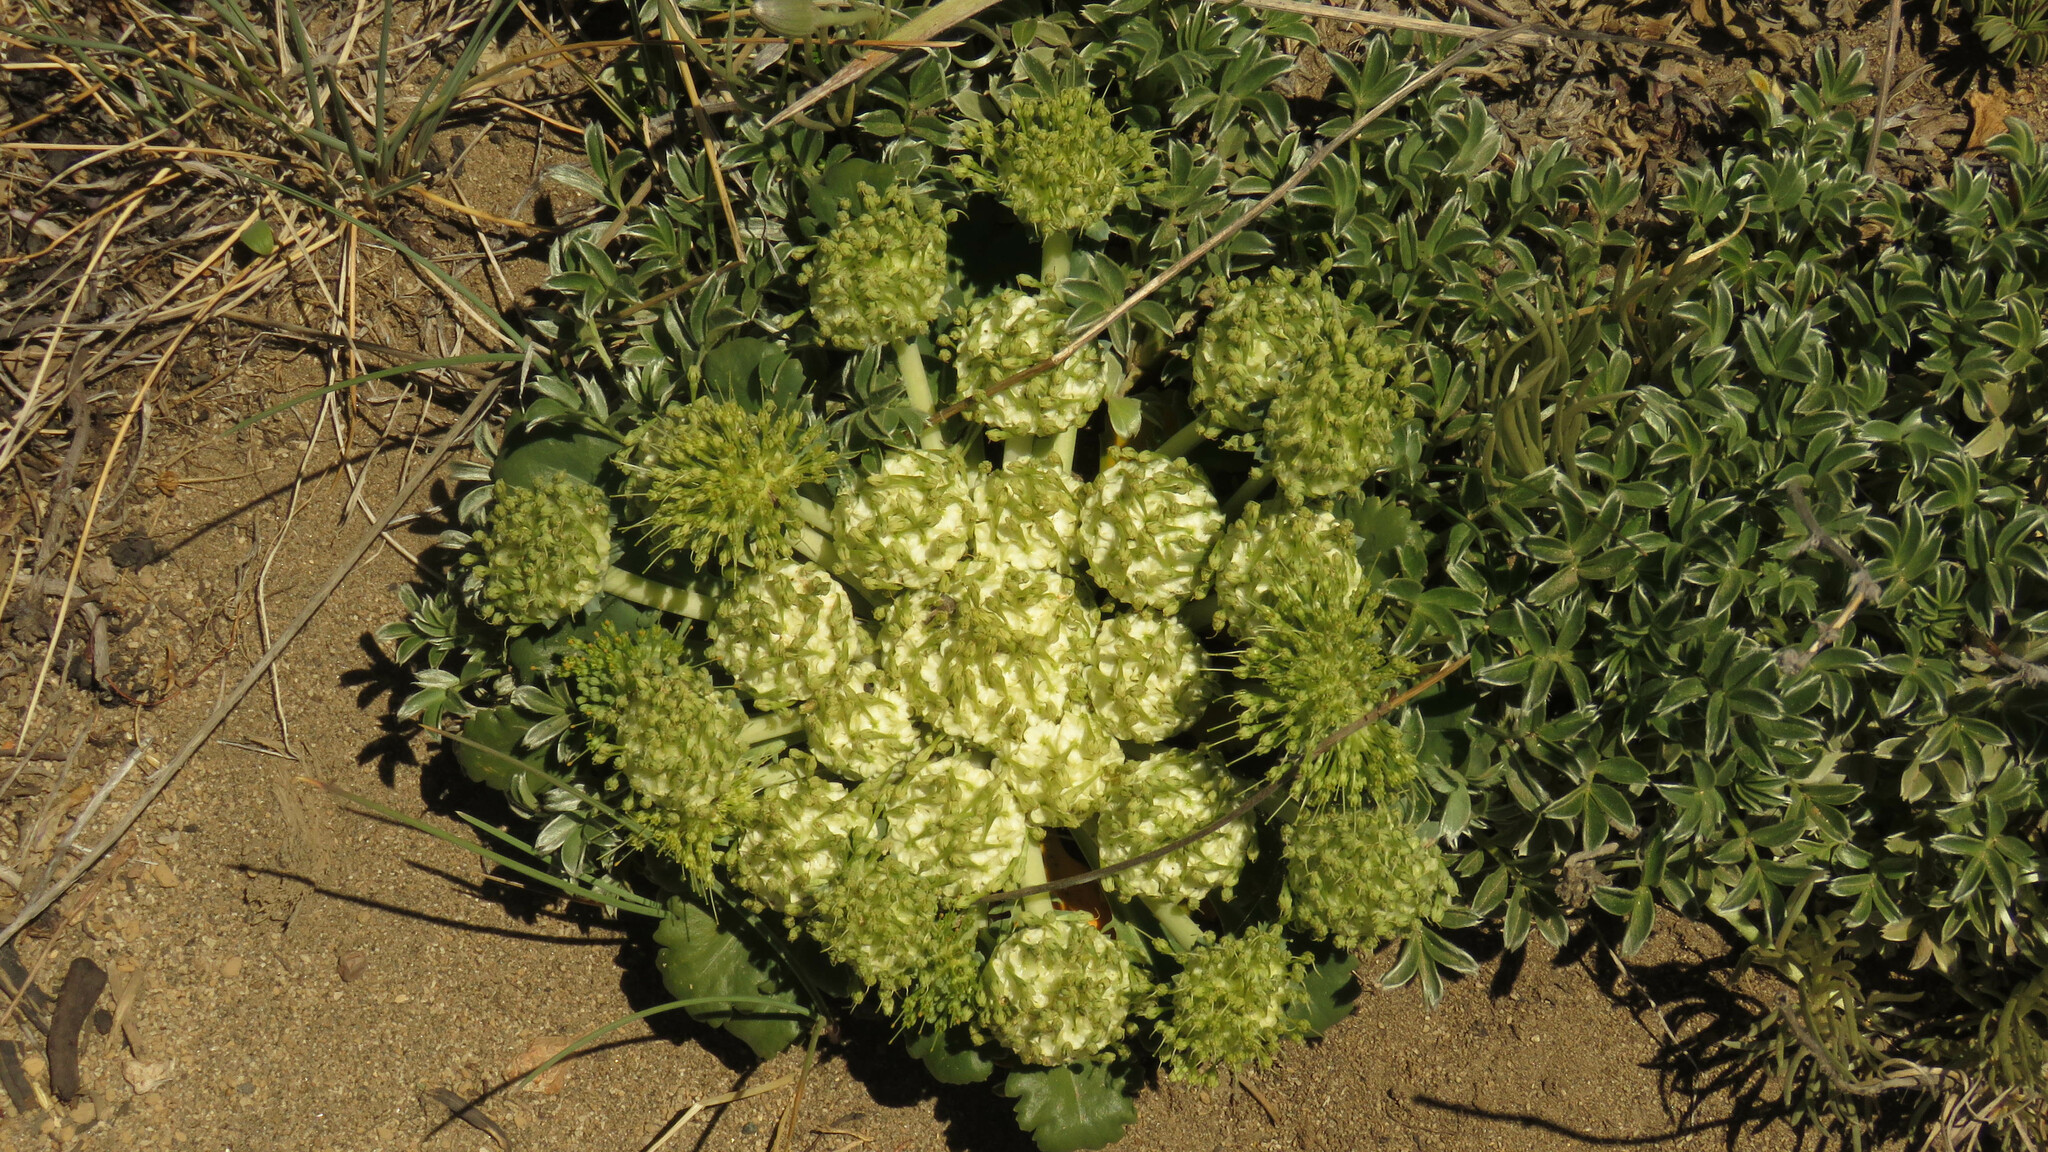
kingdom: Plantae
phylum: Tracheophyta
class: Magnoliopsida
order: Asterales
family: Calyceraceae
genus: Gamocarpha
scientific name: Gamocarpha scapigera
